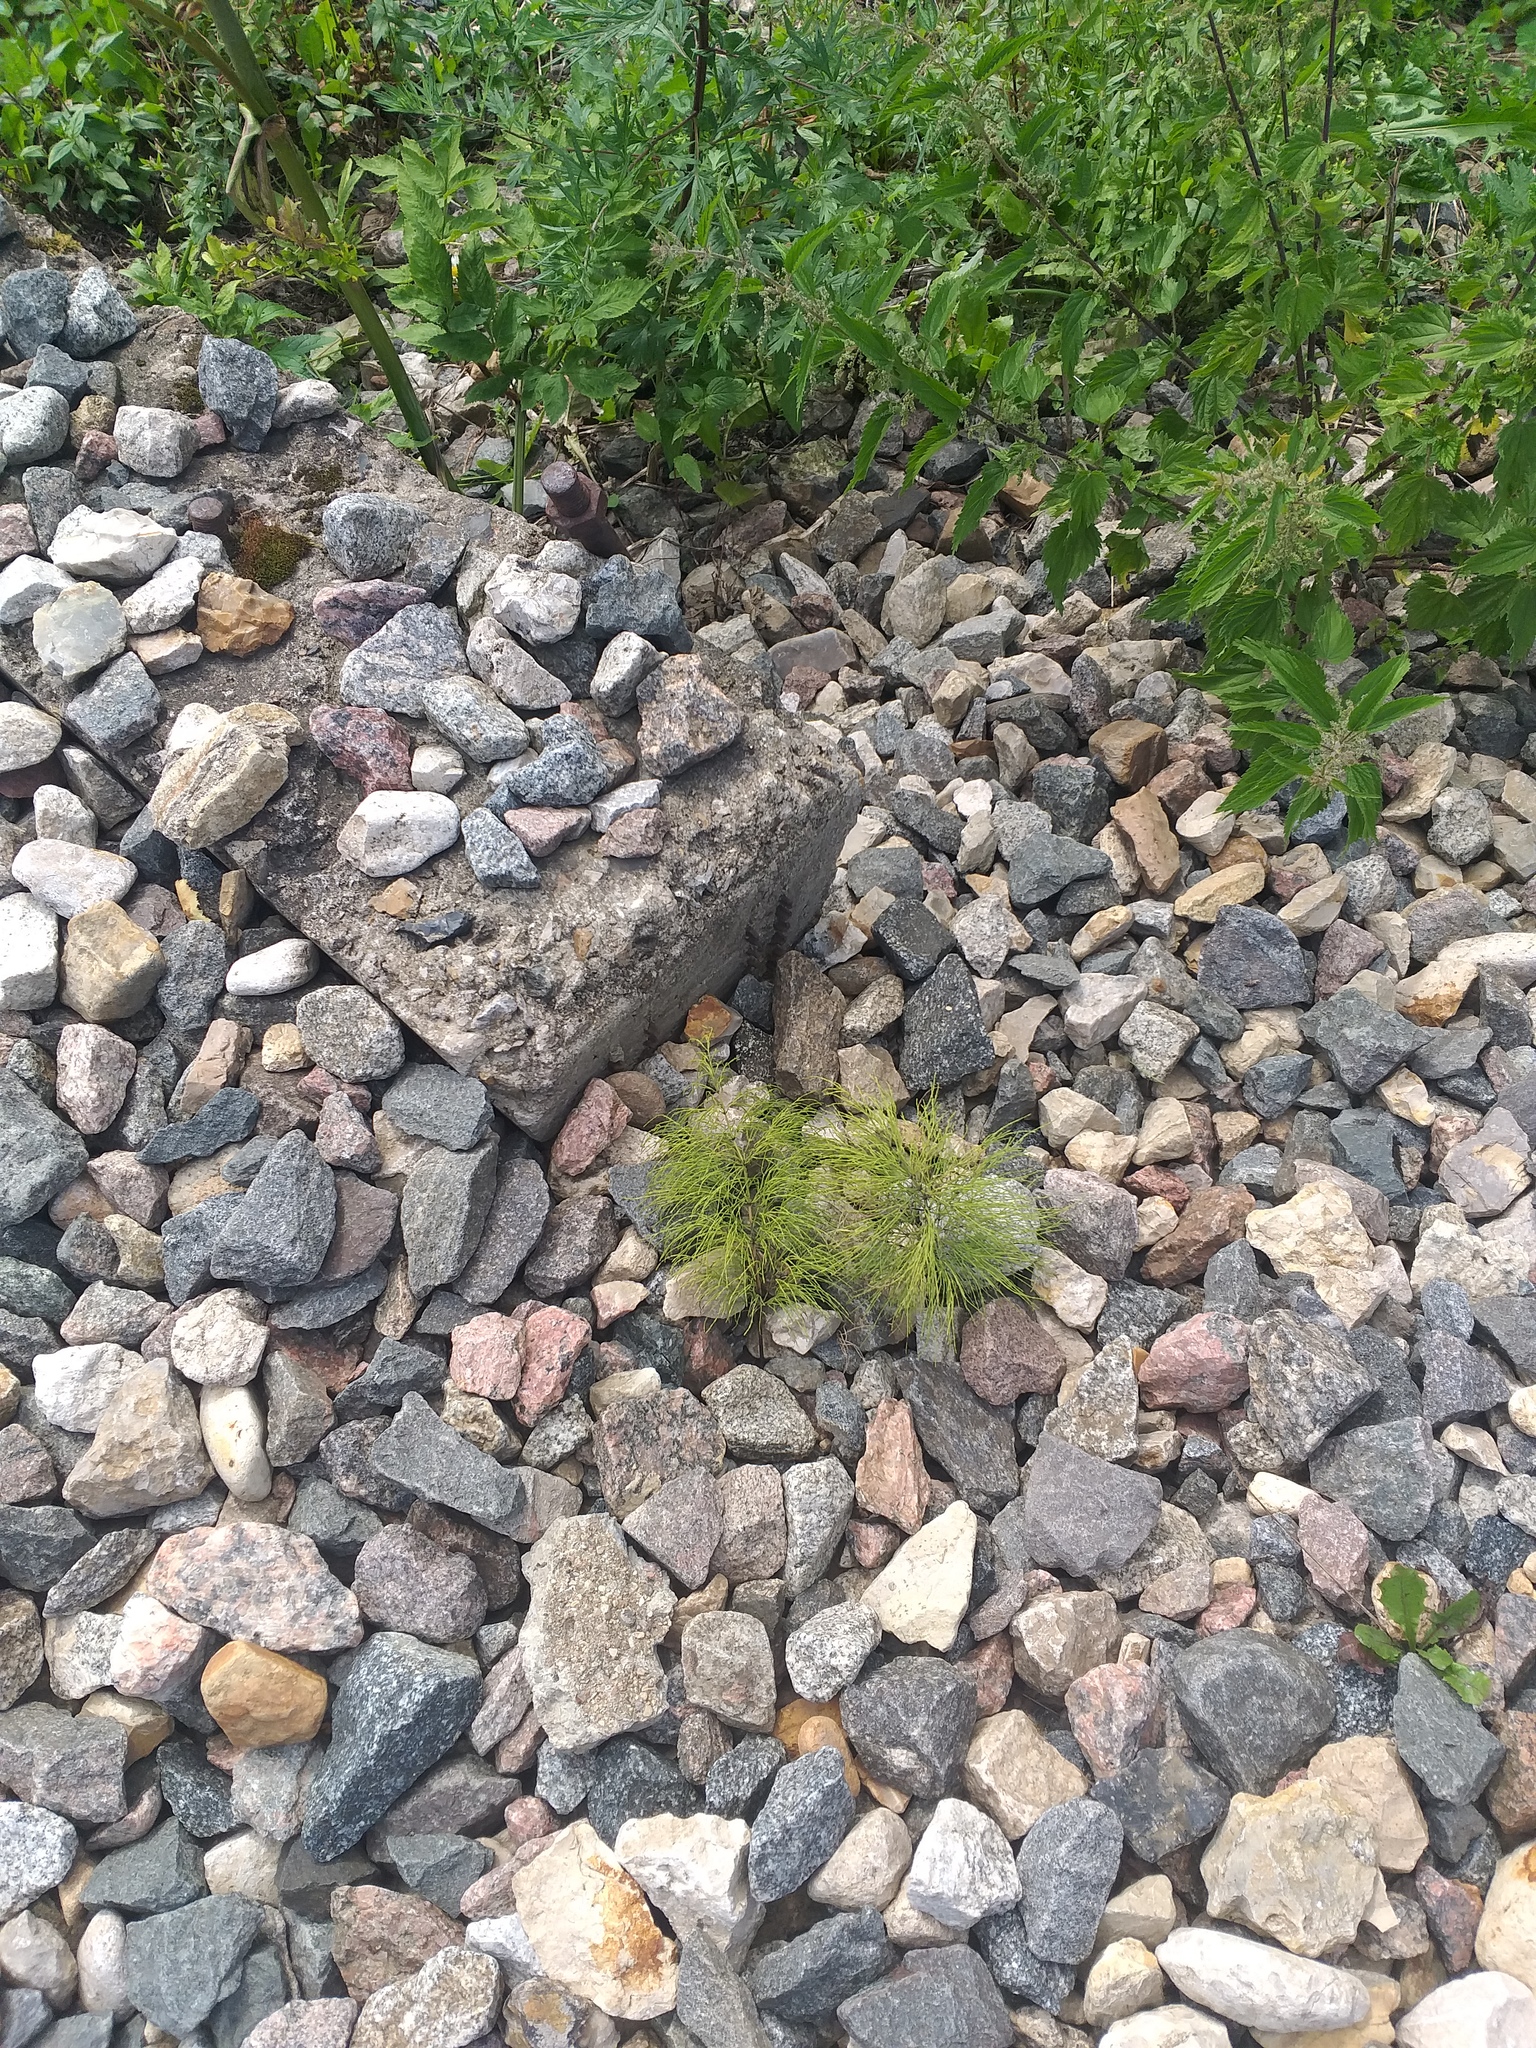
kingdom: Plantae
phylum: Tracheophyta
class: Polypodiopsida
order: Equisetales
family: Equisetaceae
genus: Equisetum
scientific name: Equisetum sylvaticum
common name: Wood horsetail
